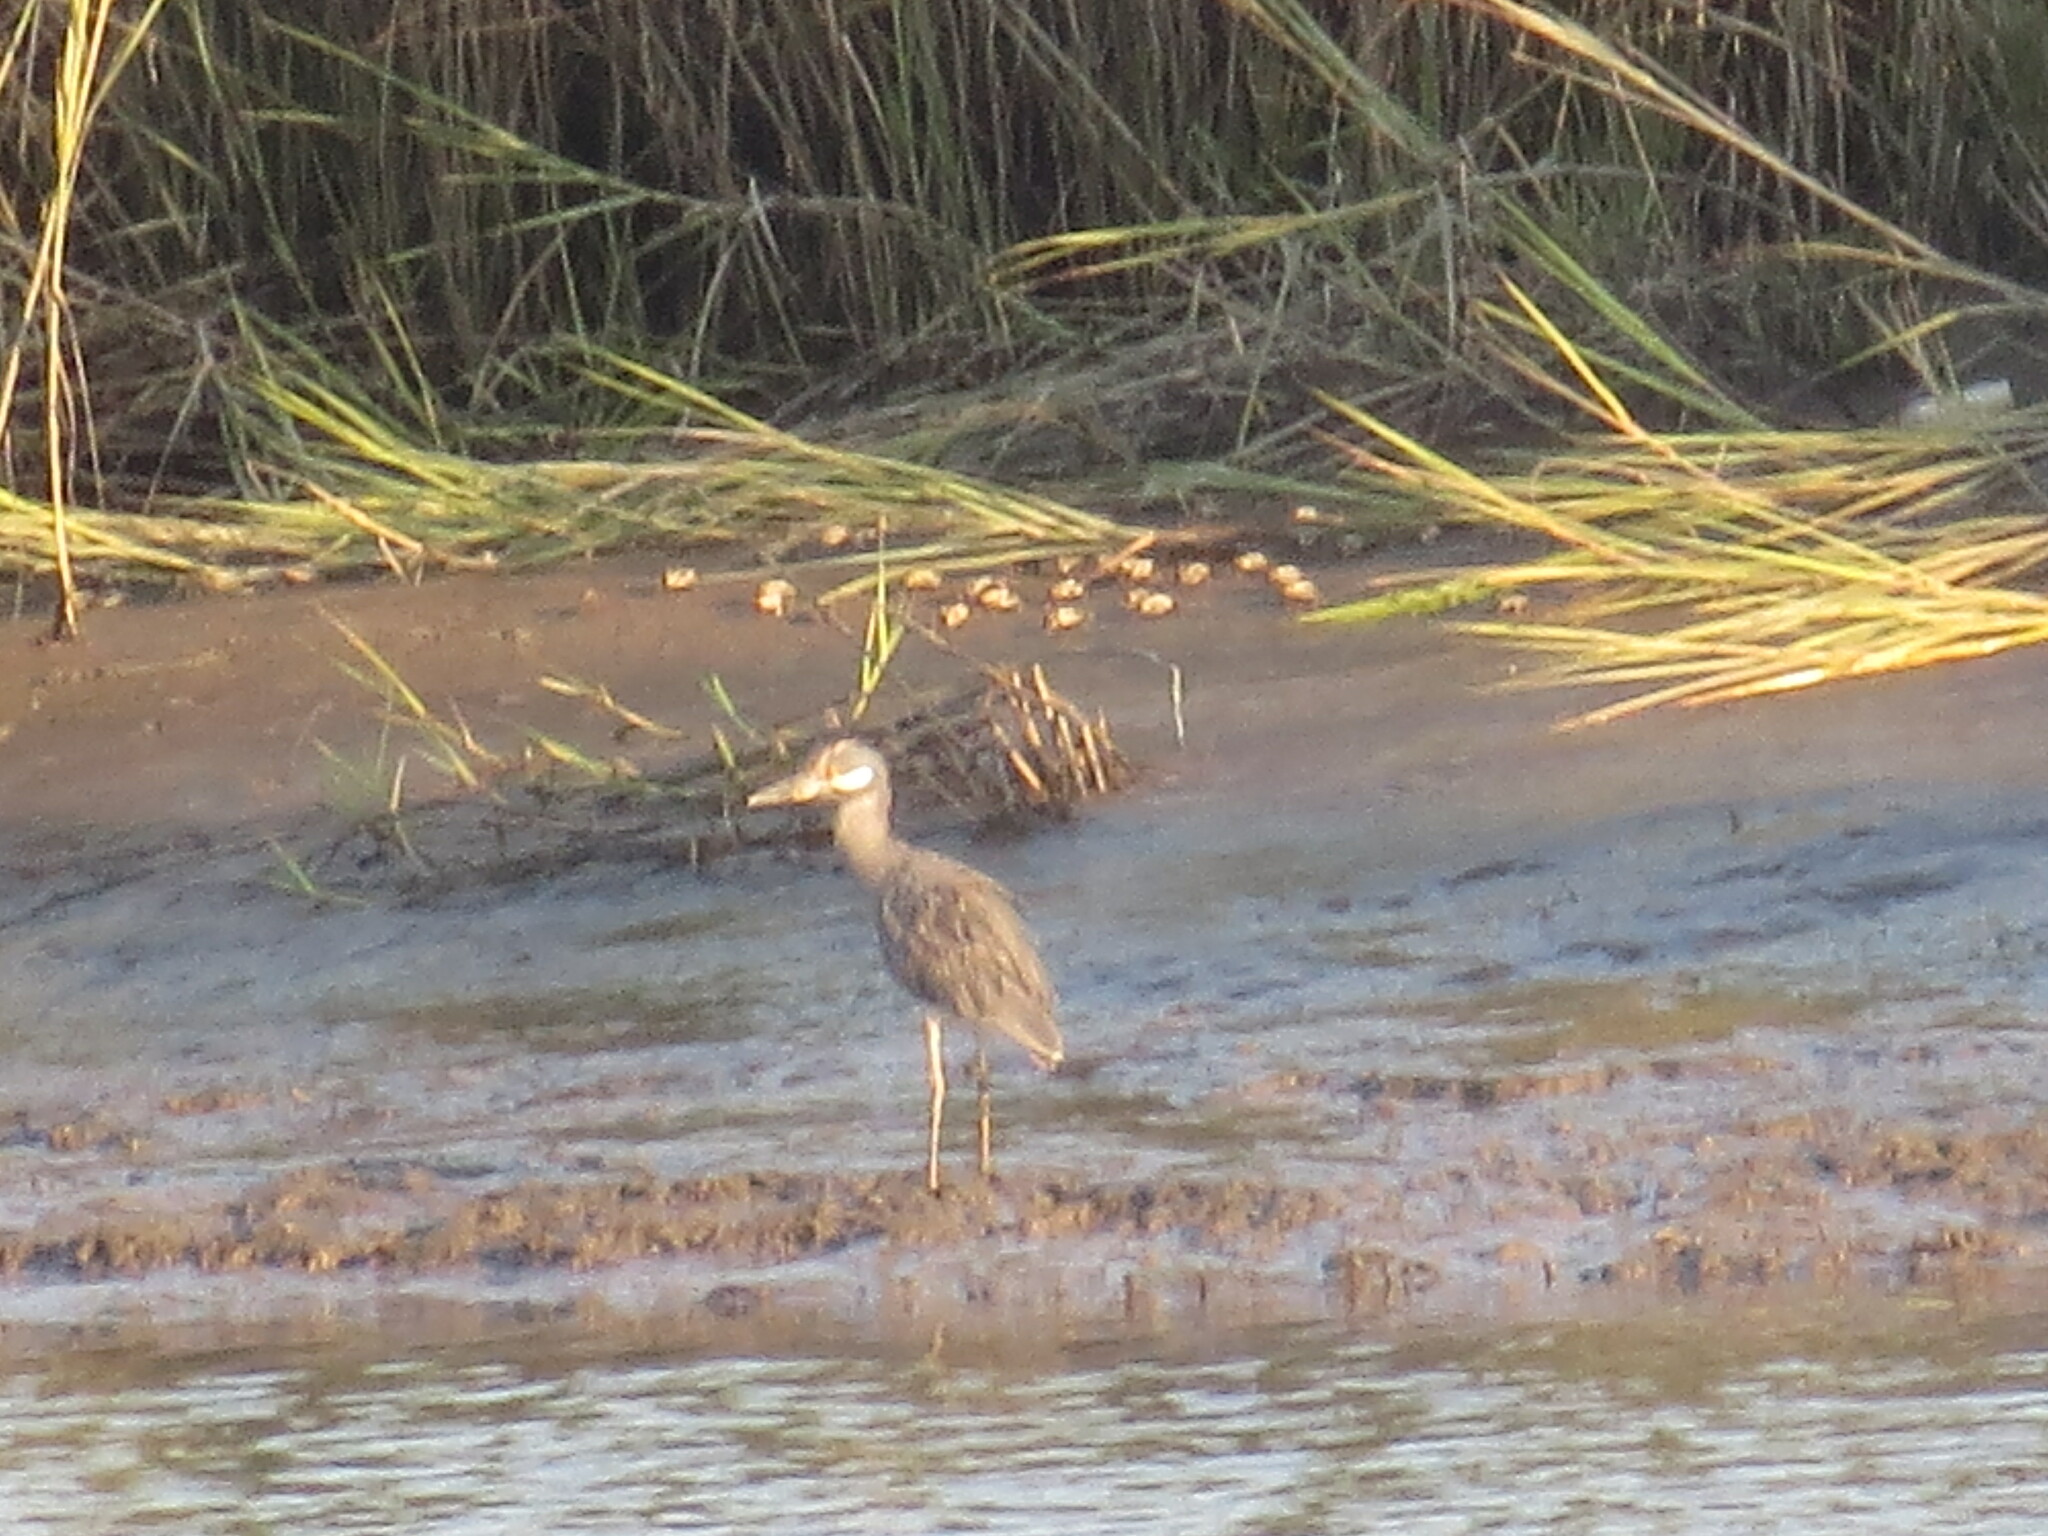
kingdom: Animalia
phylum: Chordata
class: Aves
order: Pelecaniformes
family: Ardeidae
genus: Nyctanassa
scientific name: Nyctanassa violacea
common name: Yellow-crowned night heron
